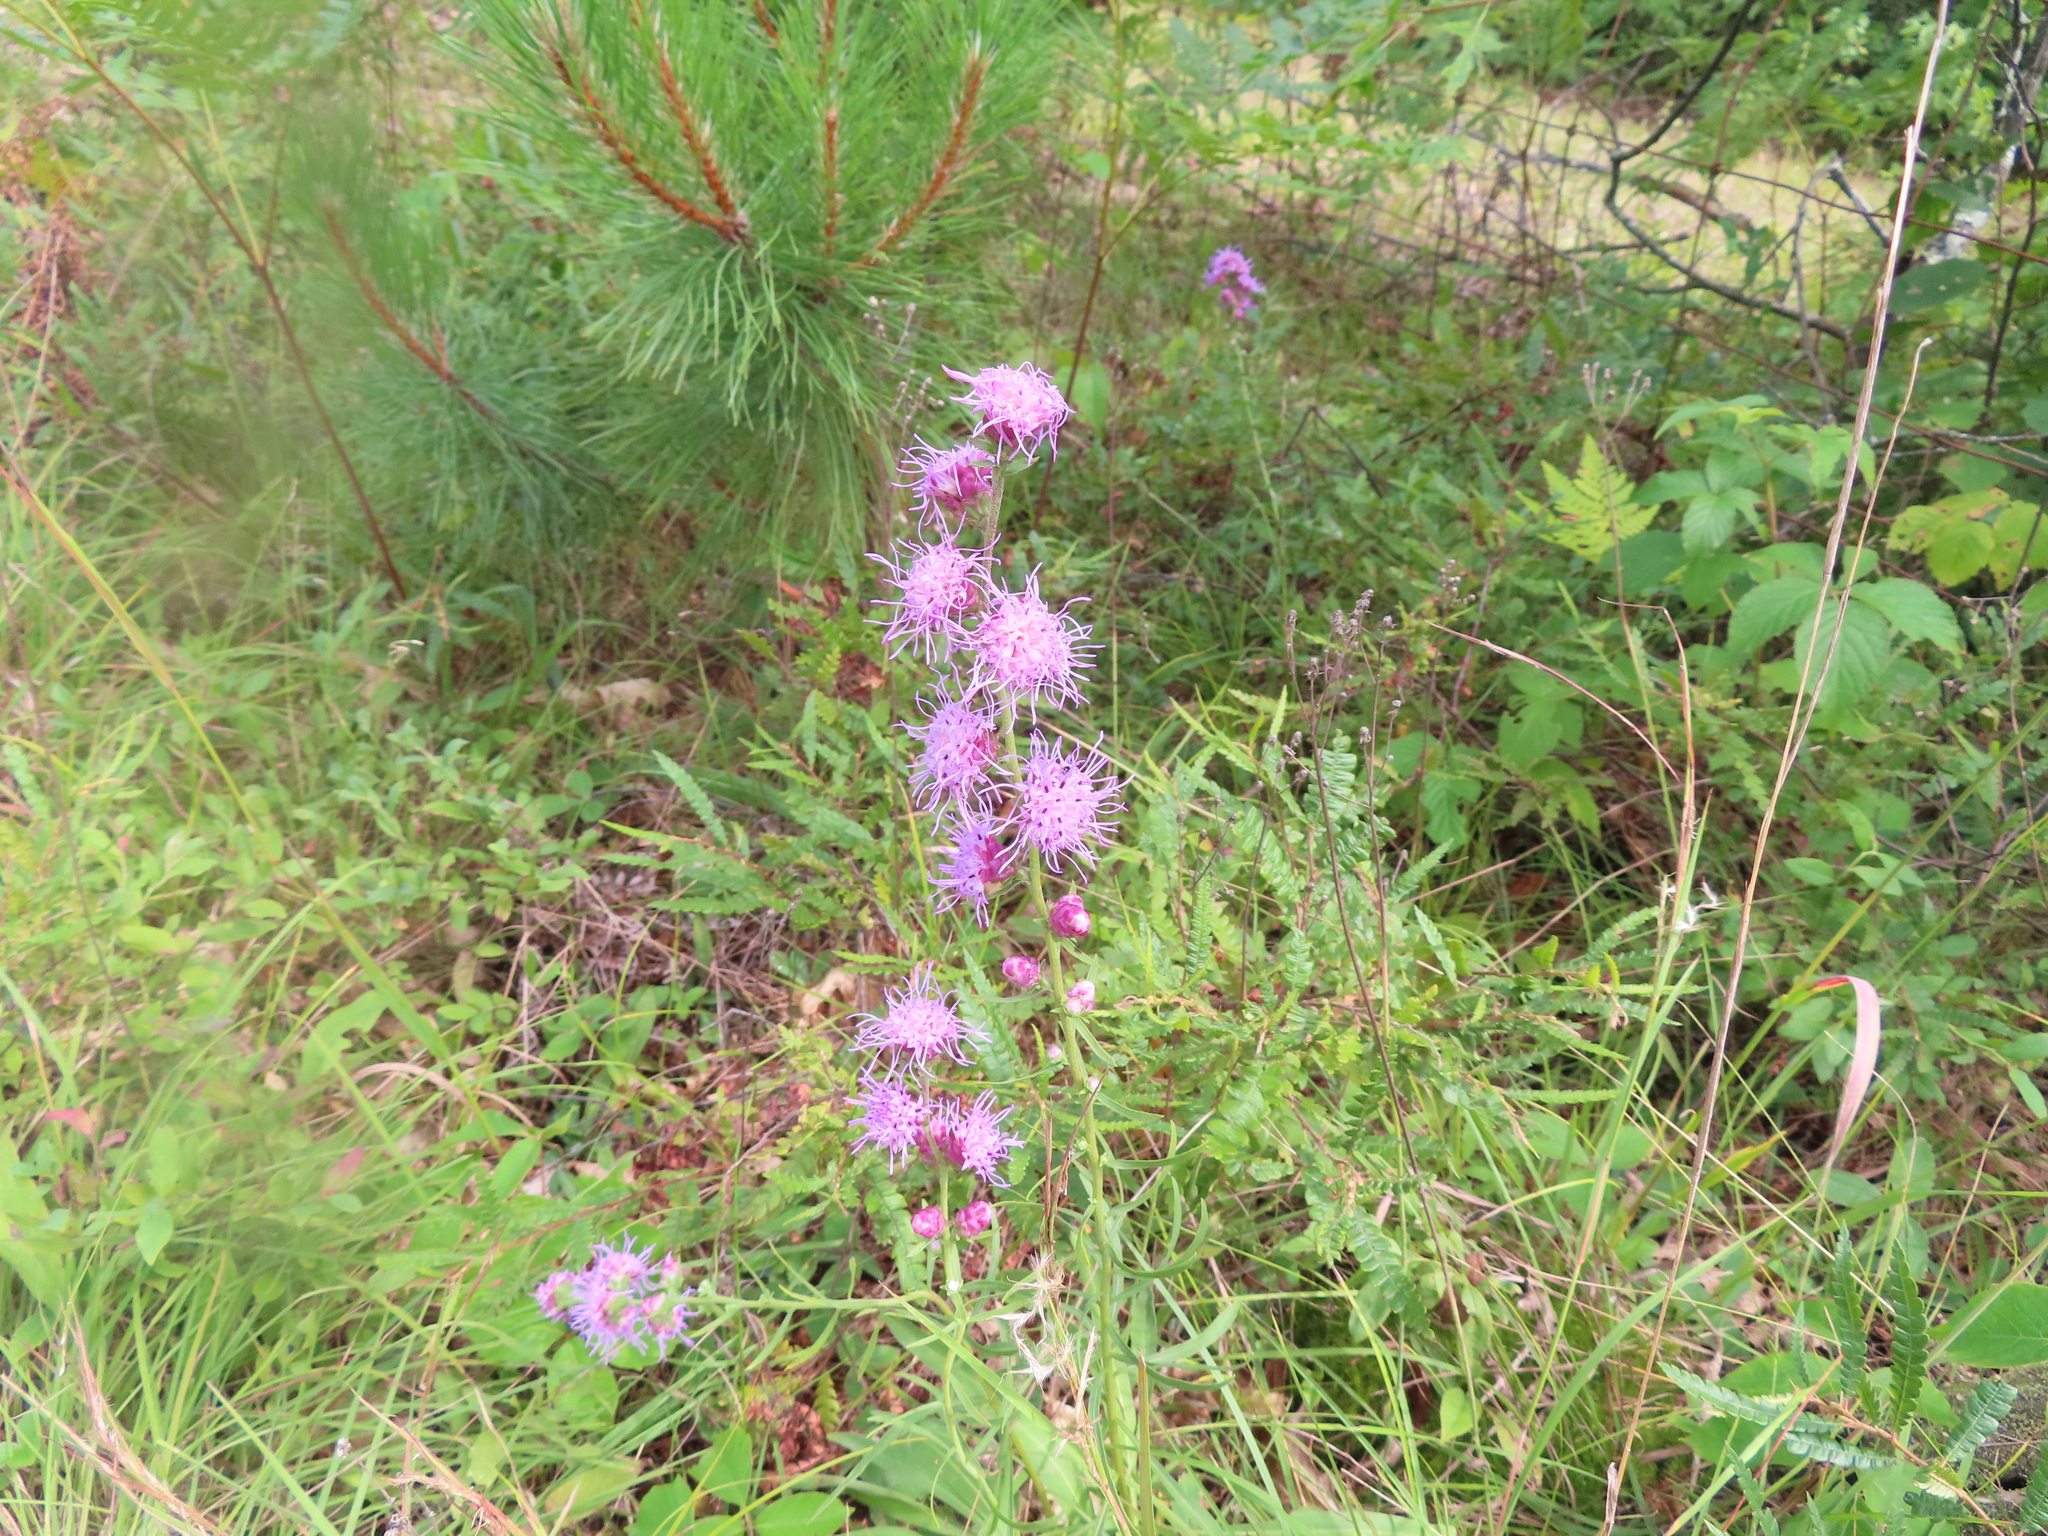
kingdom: Plantae
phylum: Tracheophyta
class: Magnoliopsida
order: Asterales
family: Asteraceae
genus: Liatris
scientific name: Liatris aspera
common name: Lacerate blazing-star
